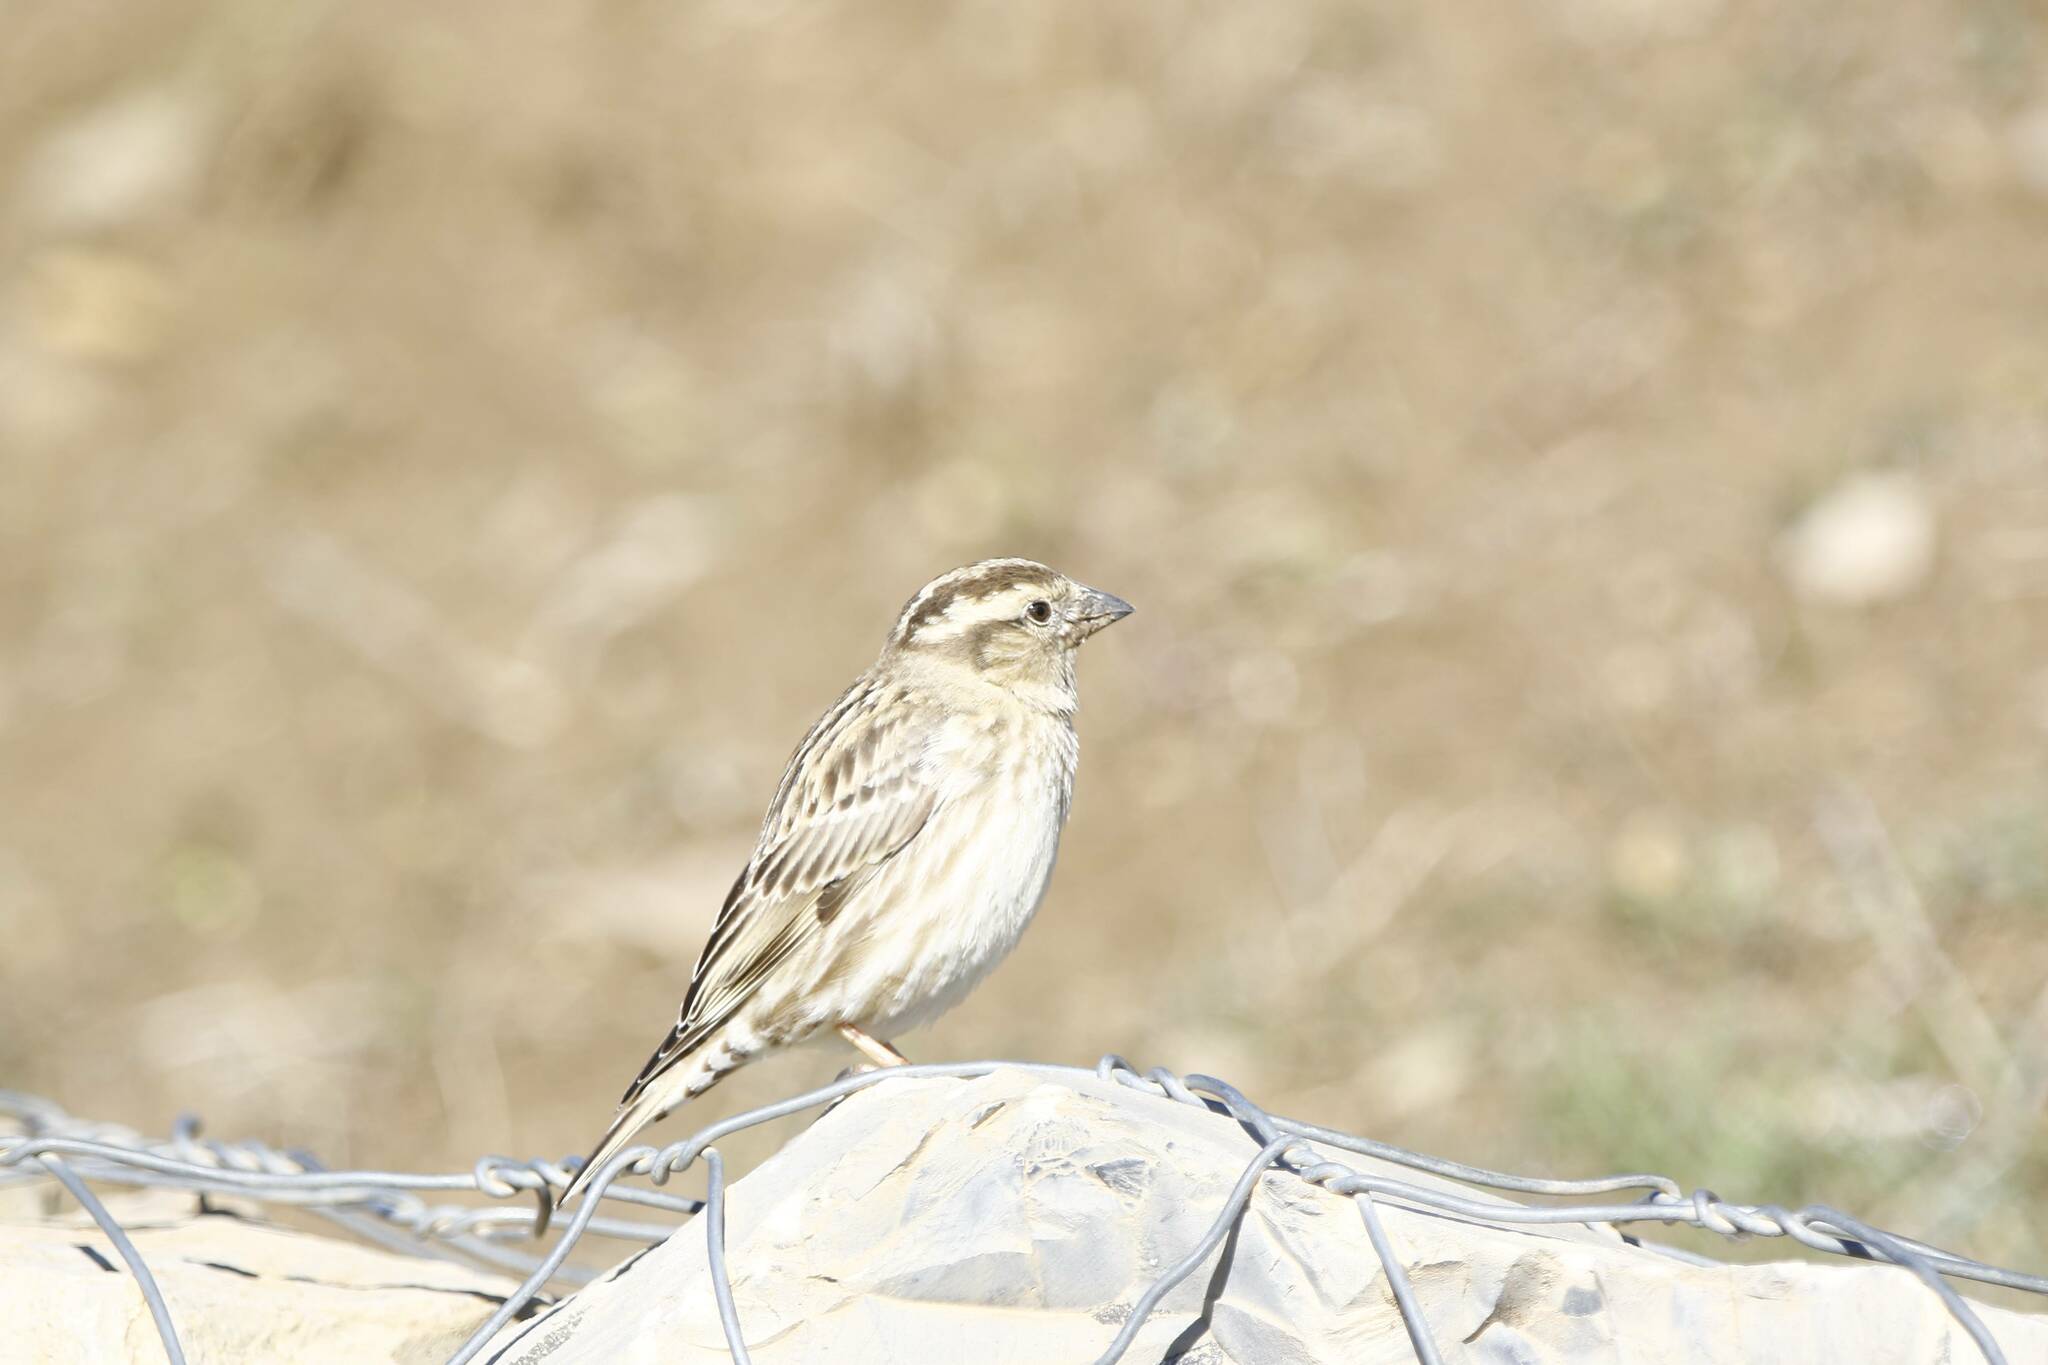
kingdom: Animalia
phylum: Chordata
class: Aves
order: Passeriformes
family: Passeridae
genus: Petronia
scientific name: Petronia petronia
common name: Rock sparrow
